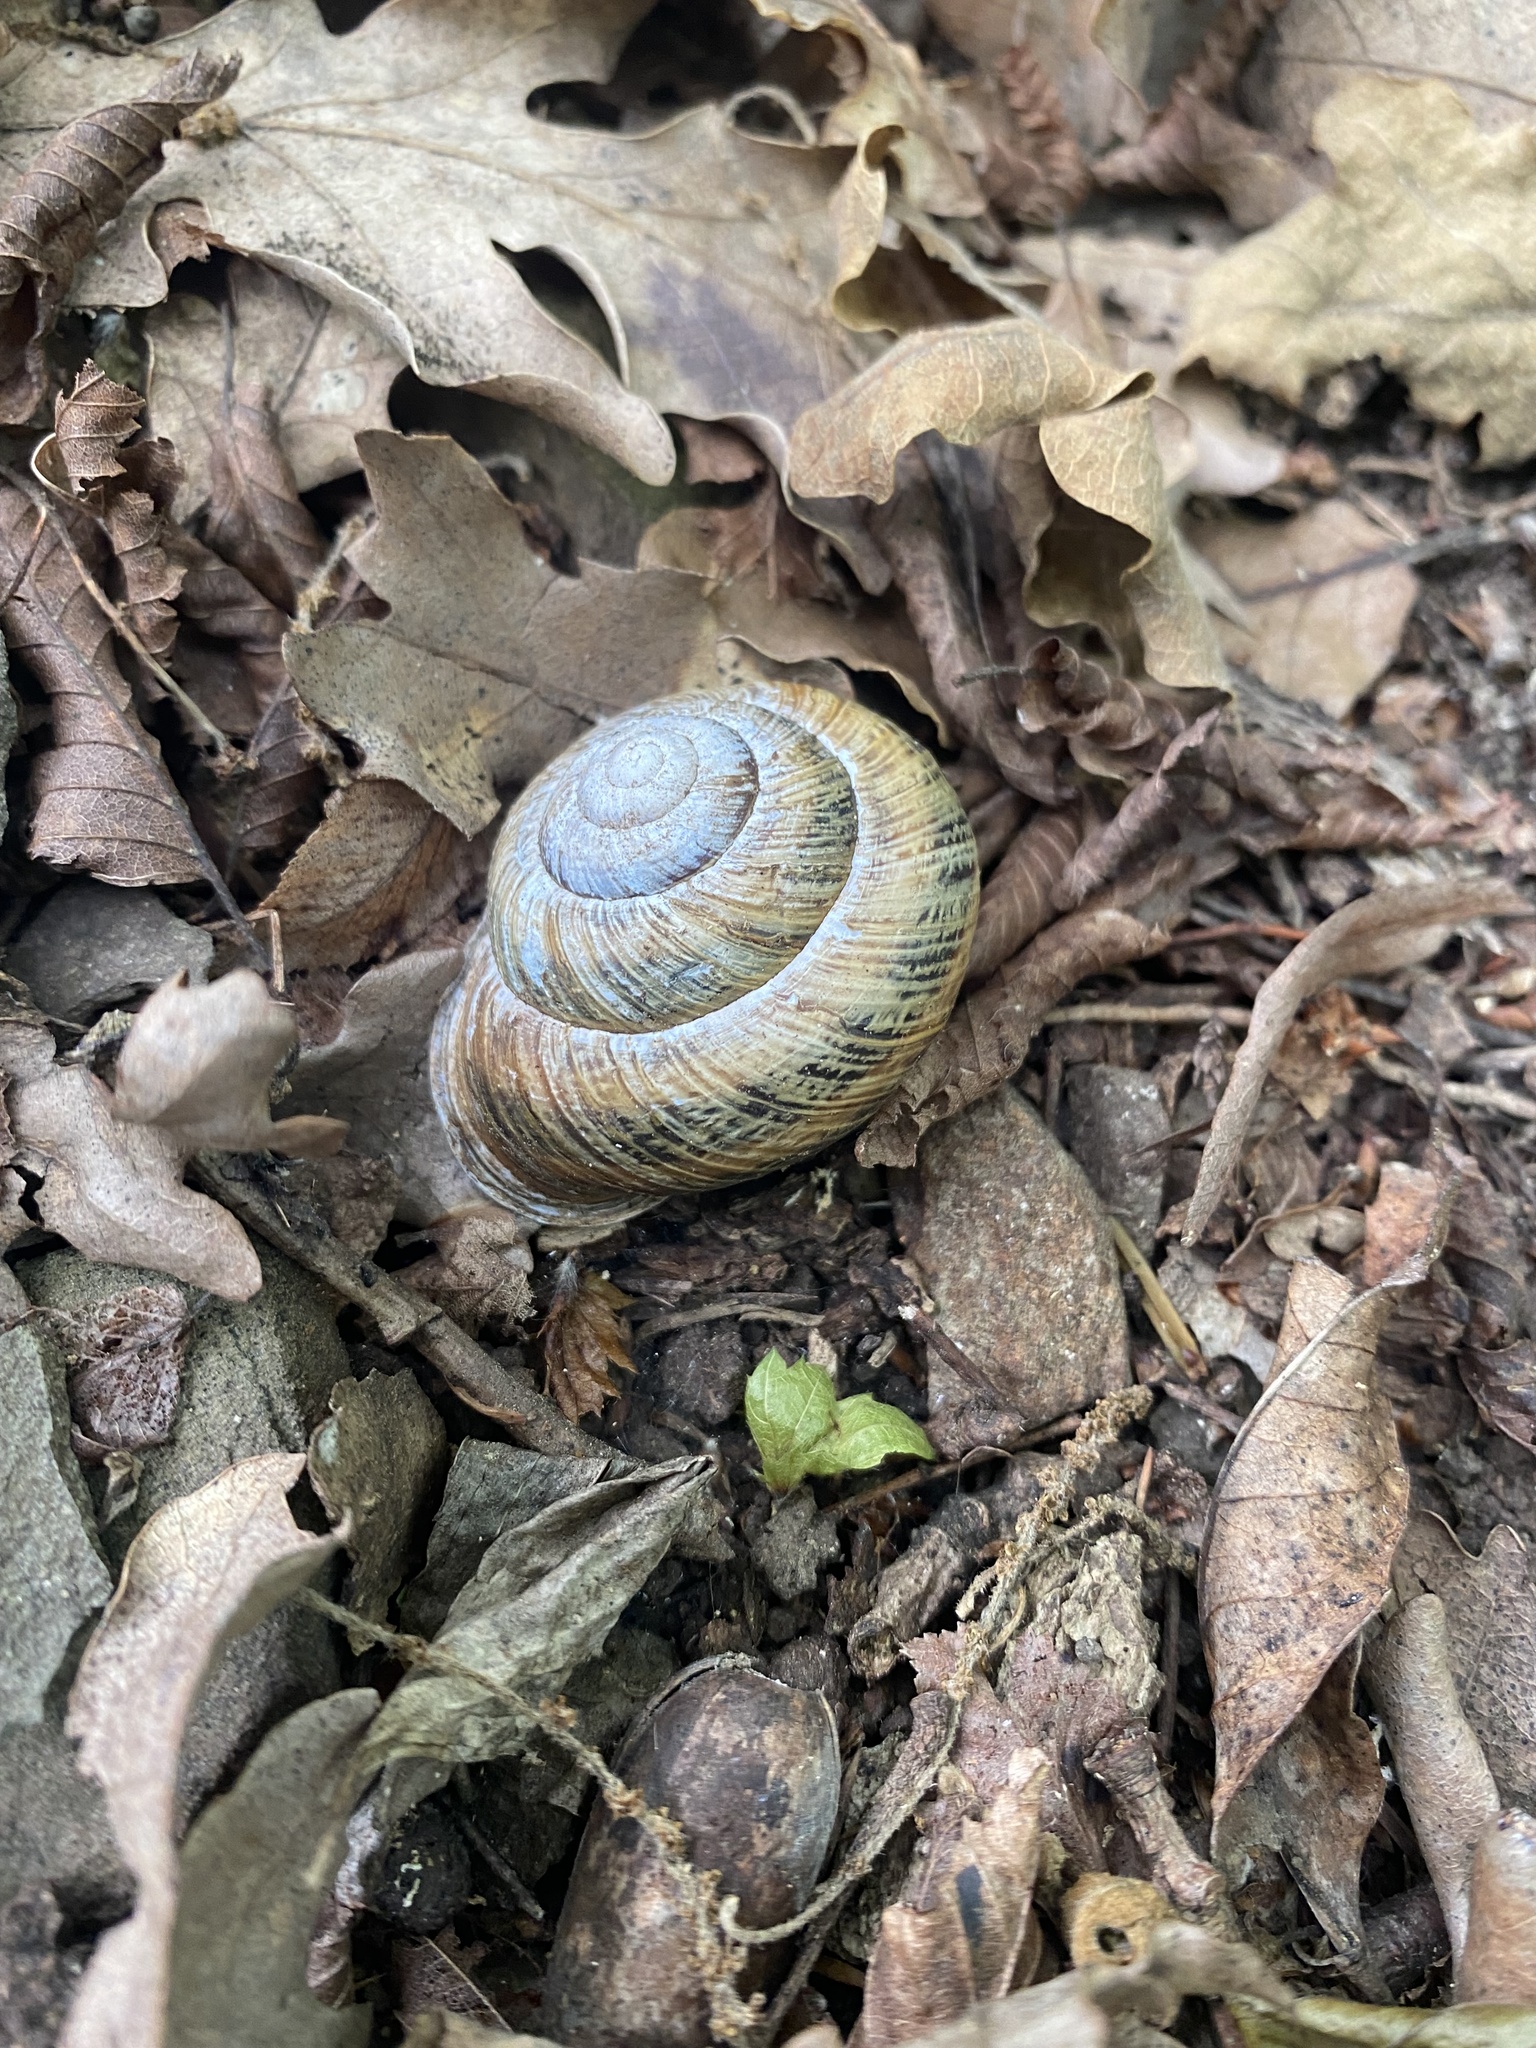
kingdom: Animalia
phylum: Mollusca
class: Gastropoda
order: Stylommatophora
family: Helicidae
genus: Caucasotachea
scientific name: Caucasotachea atrolabiata
